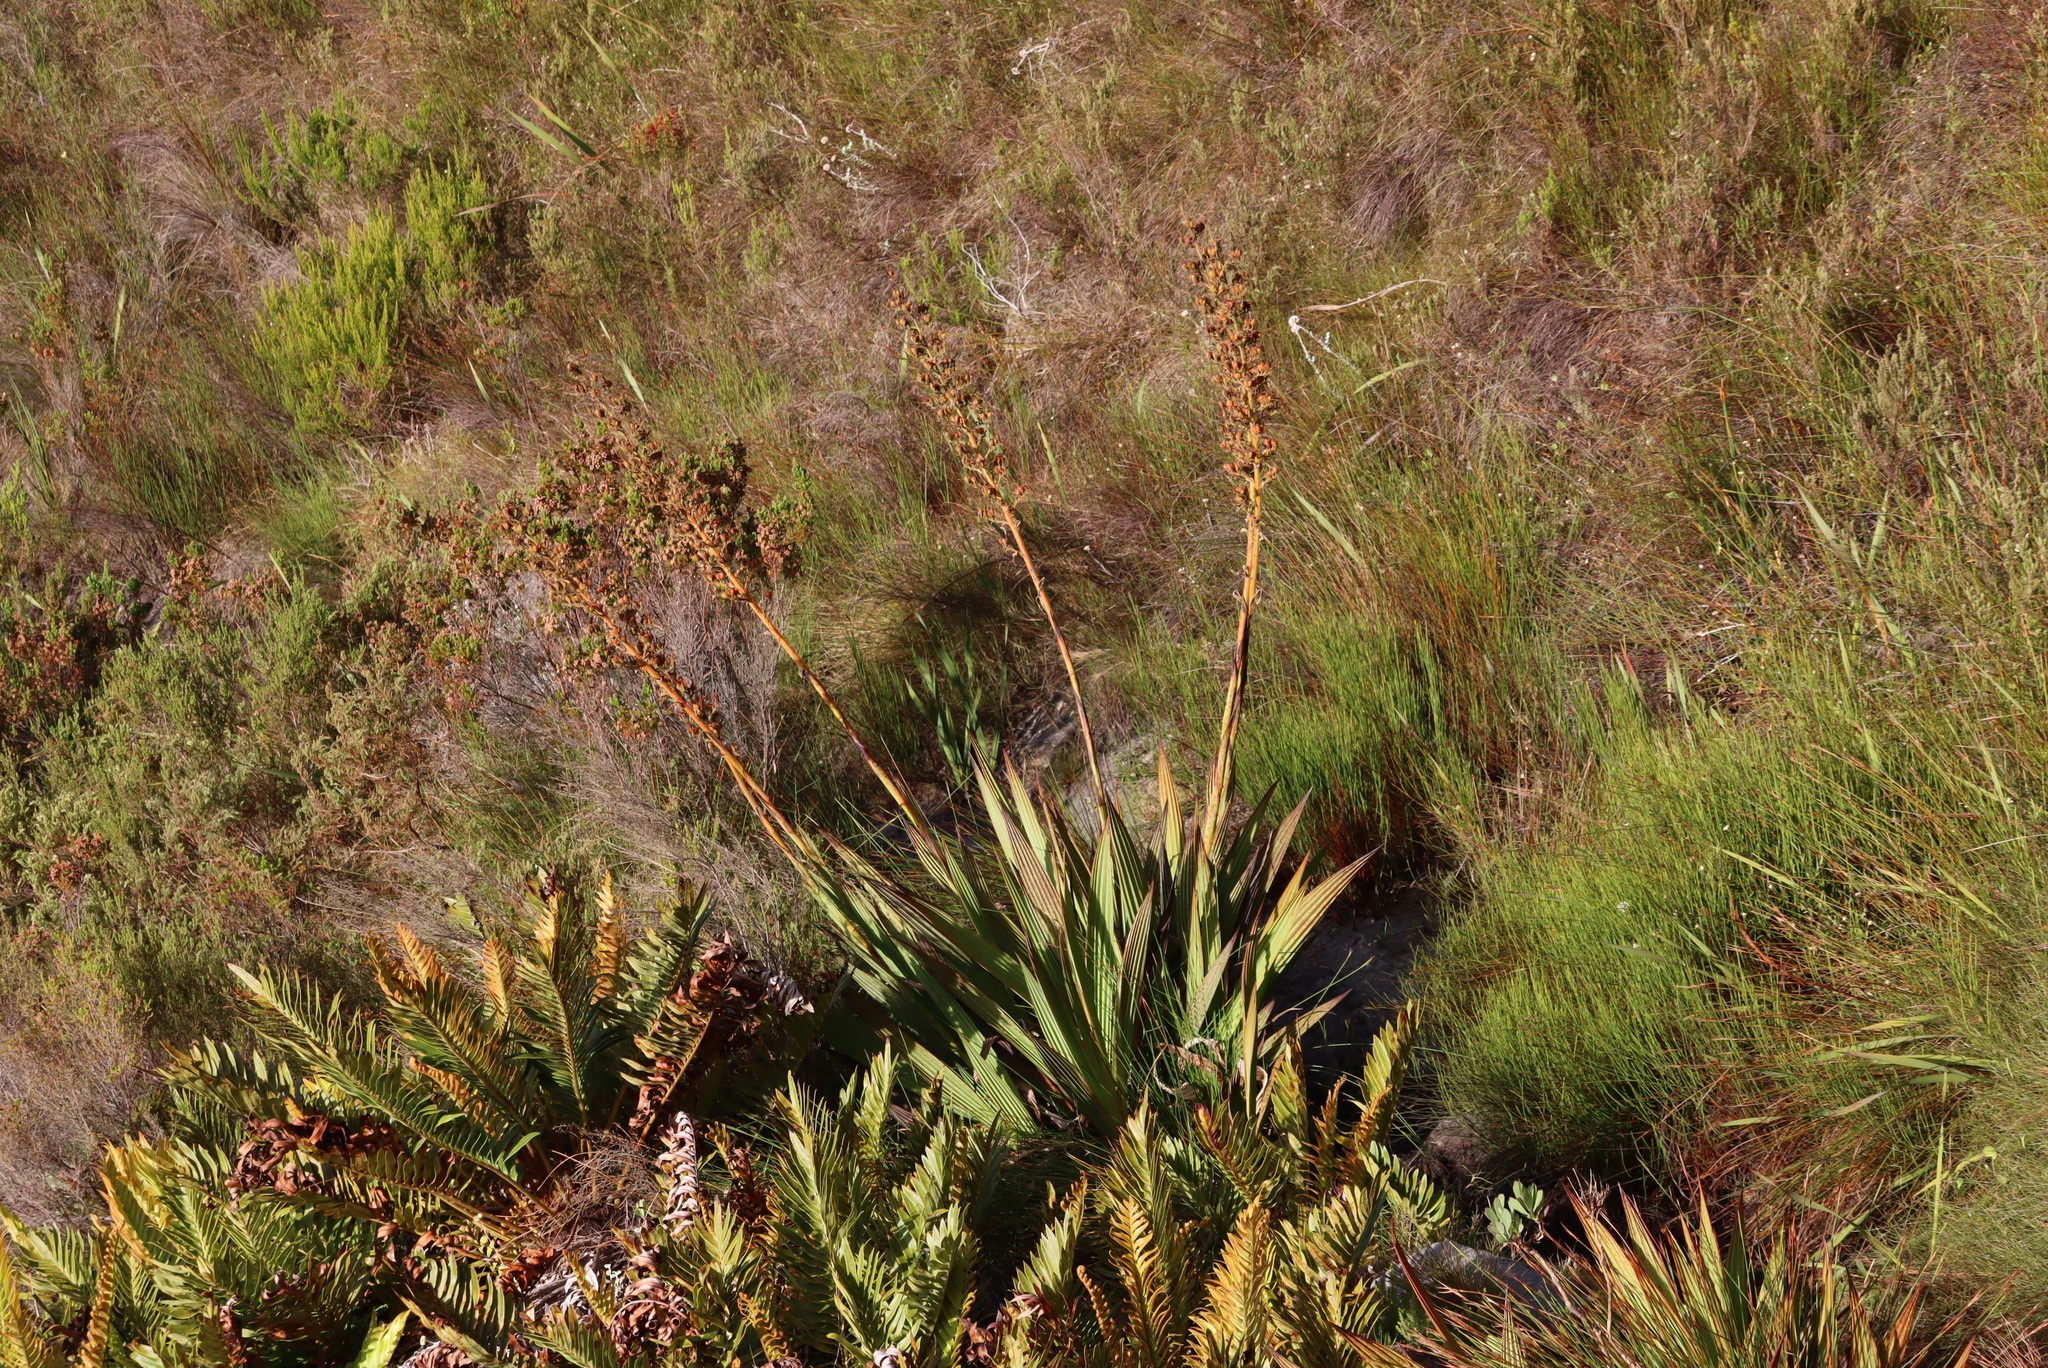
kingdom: Plantae
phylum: Tracheophyta
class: Liliopsida
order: Commelinales
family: Haemodoraceae
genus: Wachendorfia
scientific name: Wachendorfia thyrsiflora
